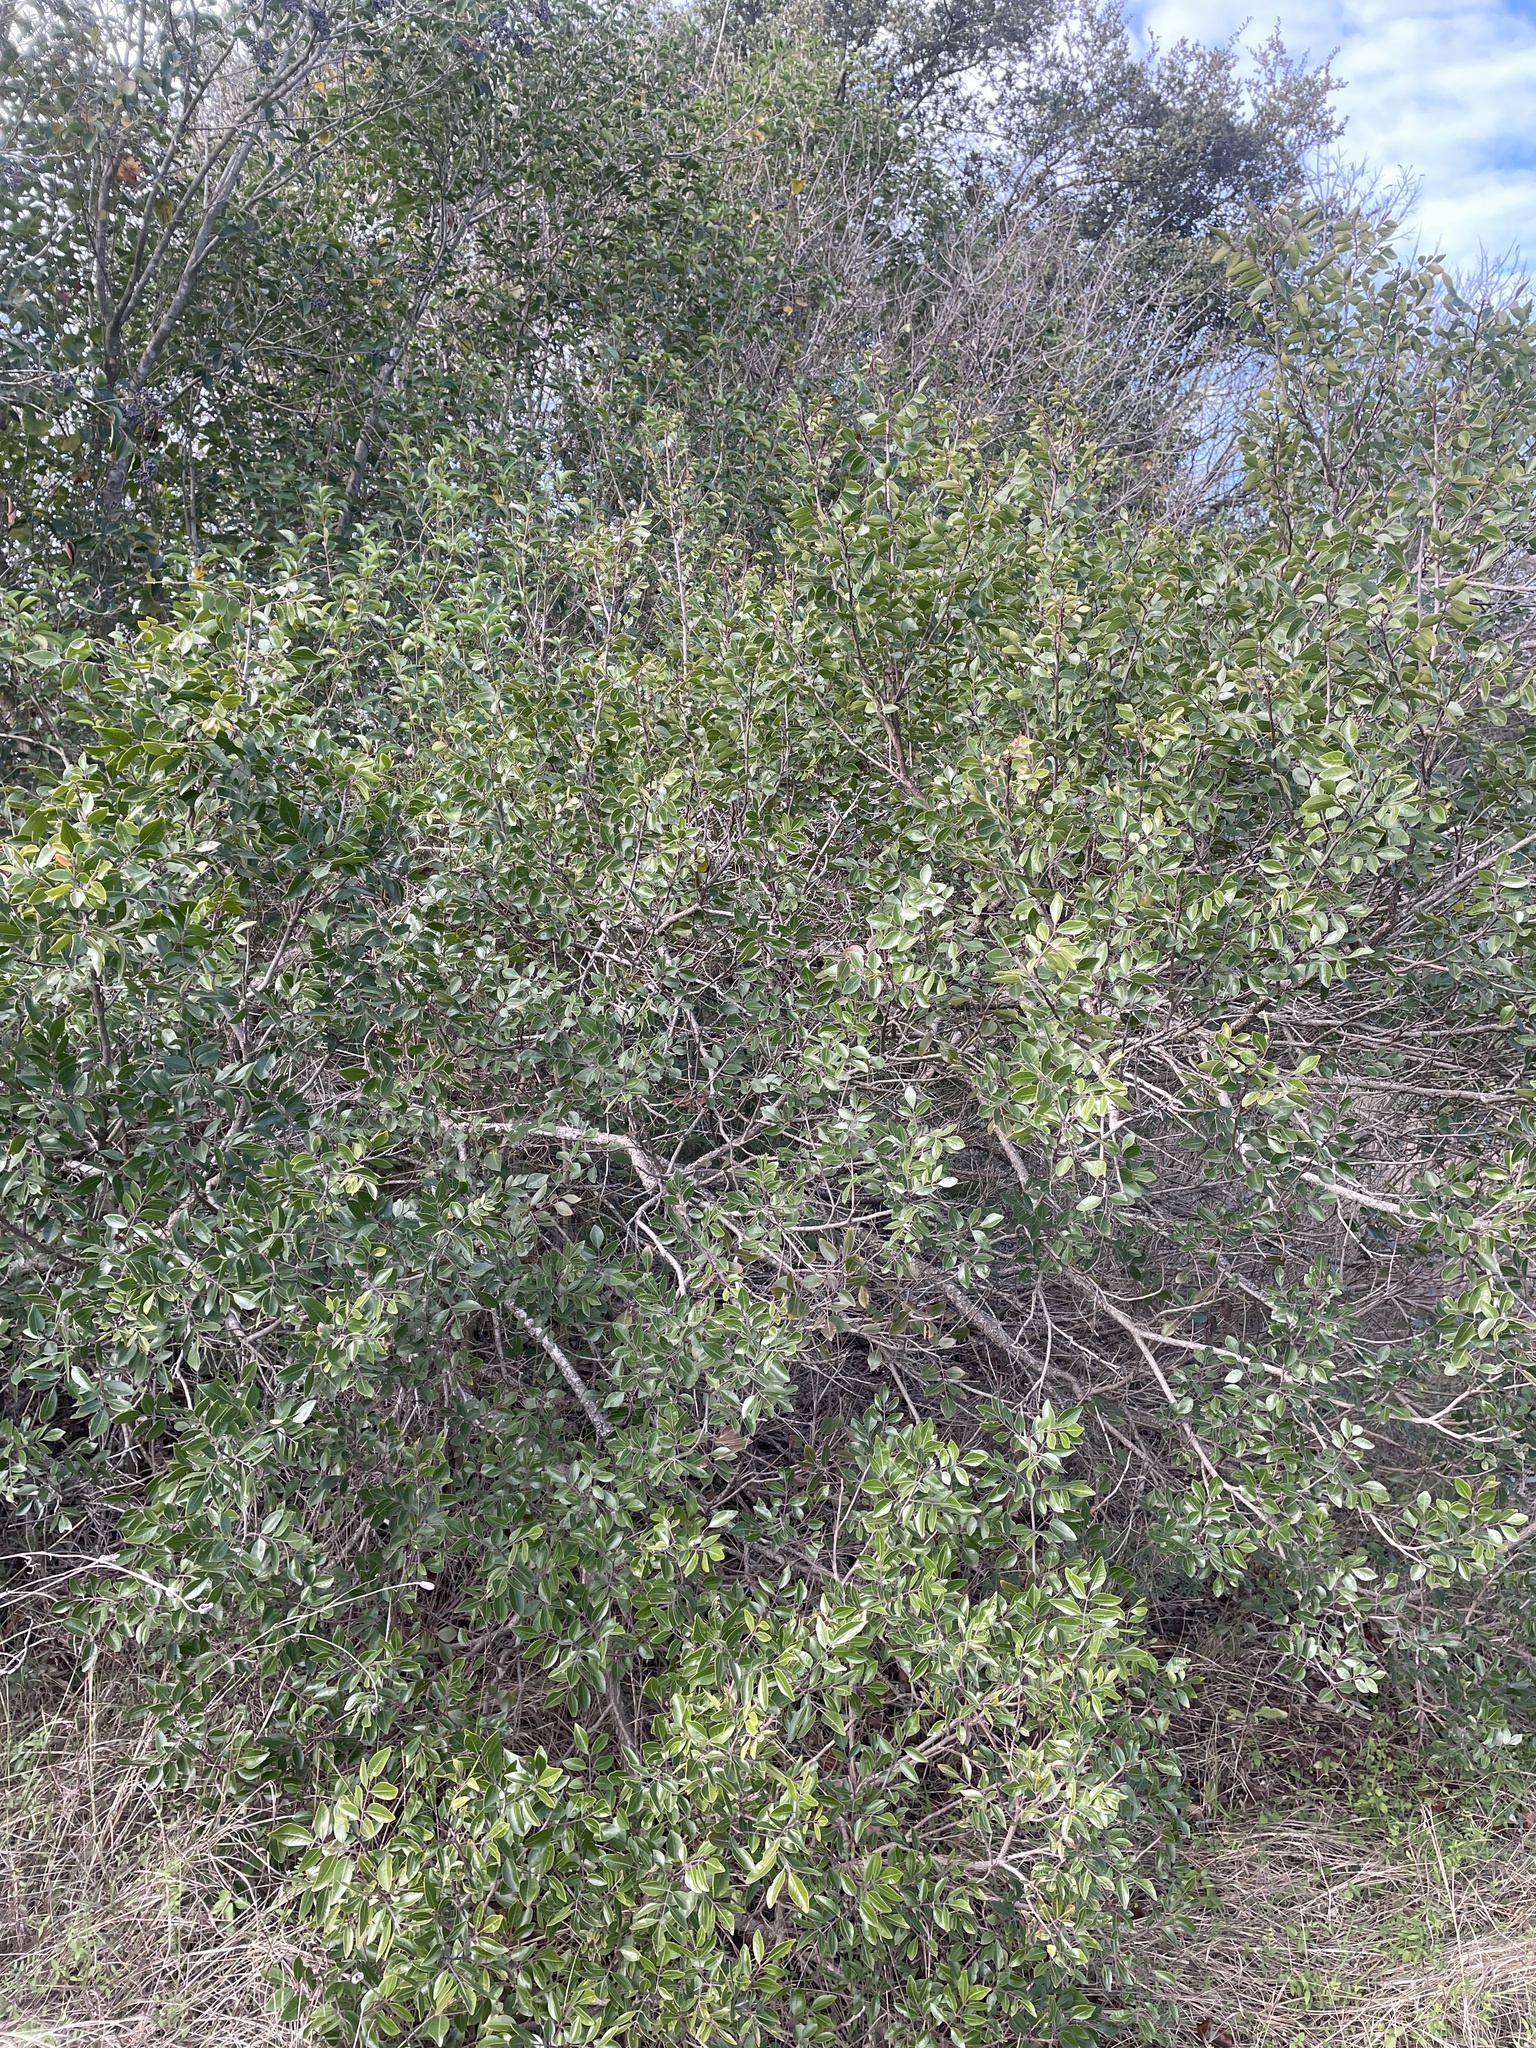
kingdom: Plantae
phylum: Tracheophyta
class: Magnoliopsida
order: Sapindales
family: Anacardiaceae
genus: Rhus
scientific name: Rhus virens
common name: Evergreen sumac
